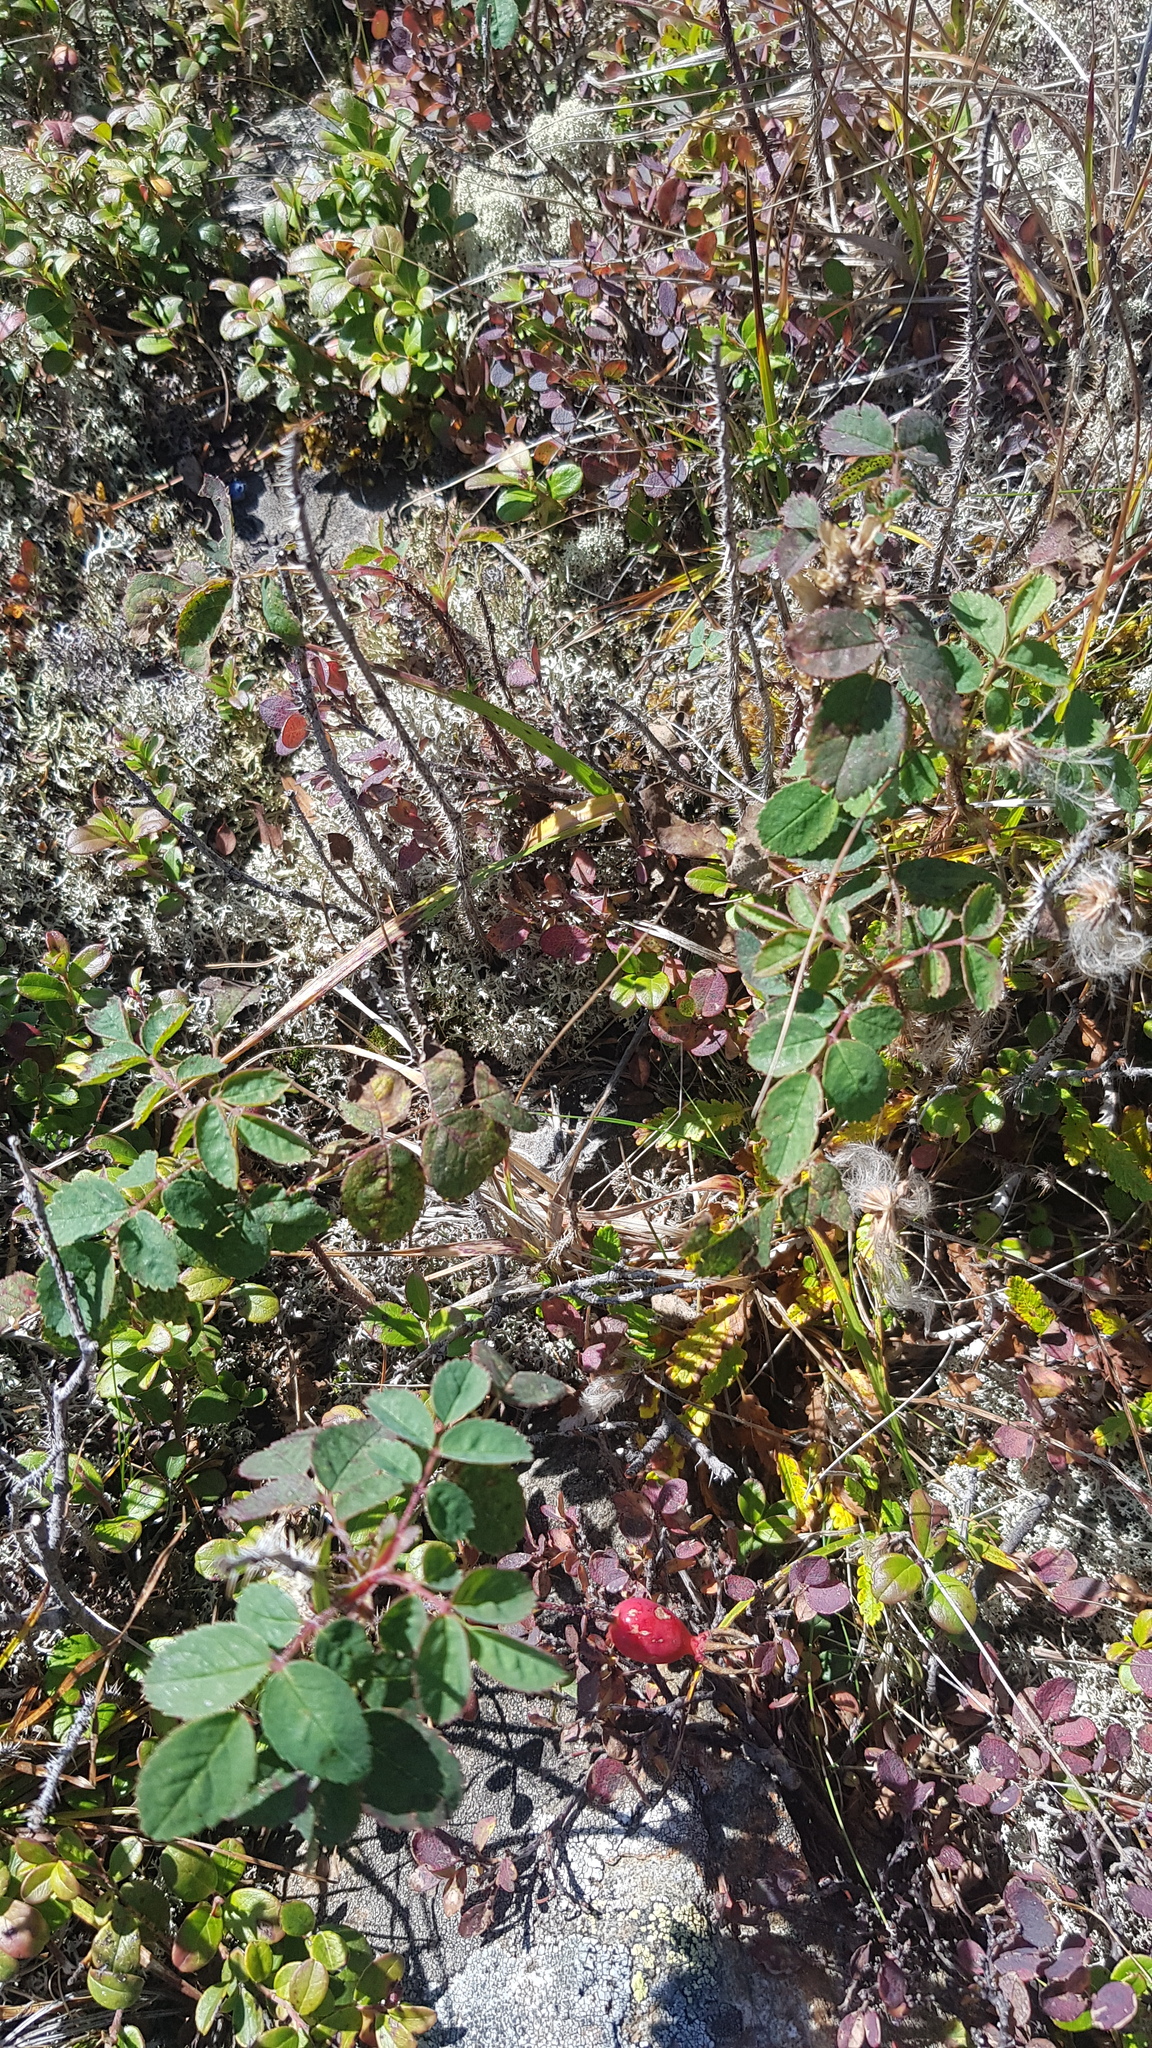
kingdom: Plantae
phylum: Tracheophyta
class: Magnoliopsida
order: Rosales
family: Rosaceae
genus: Rosa
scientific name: Rosa acicularis
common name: Prickly rose
